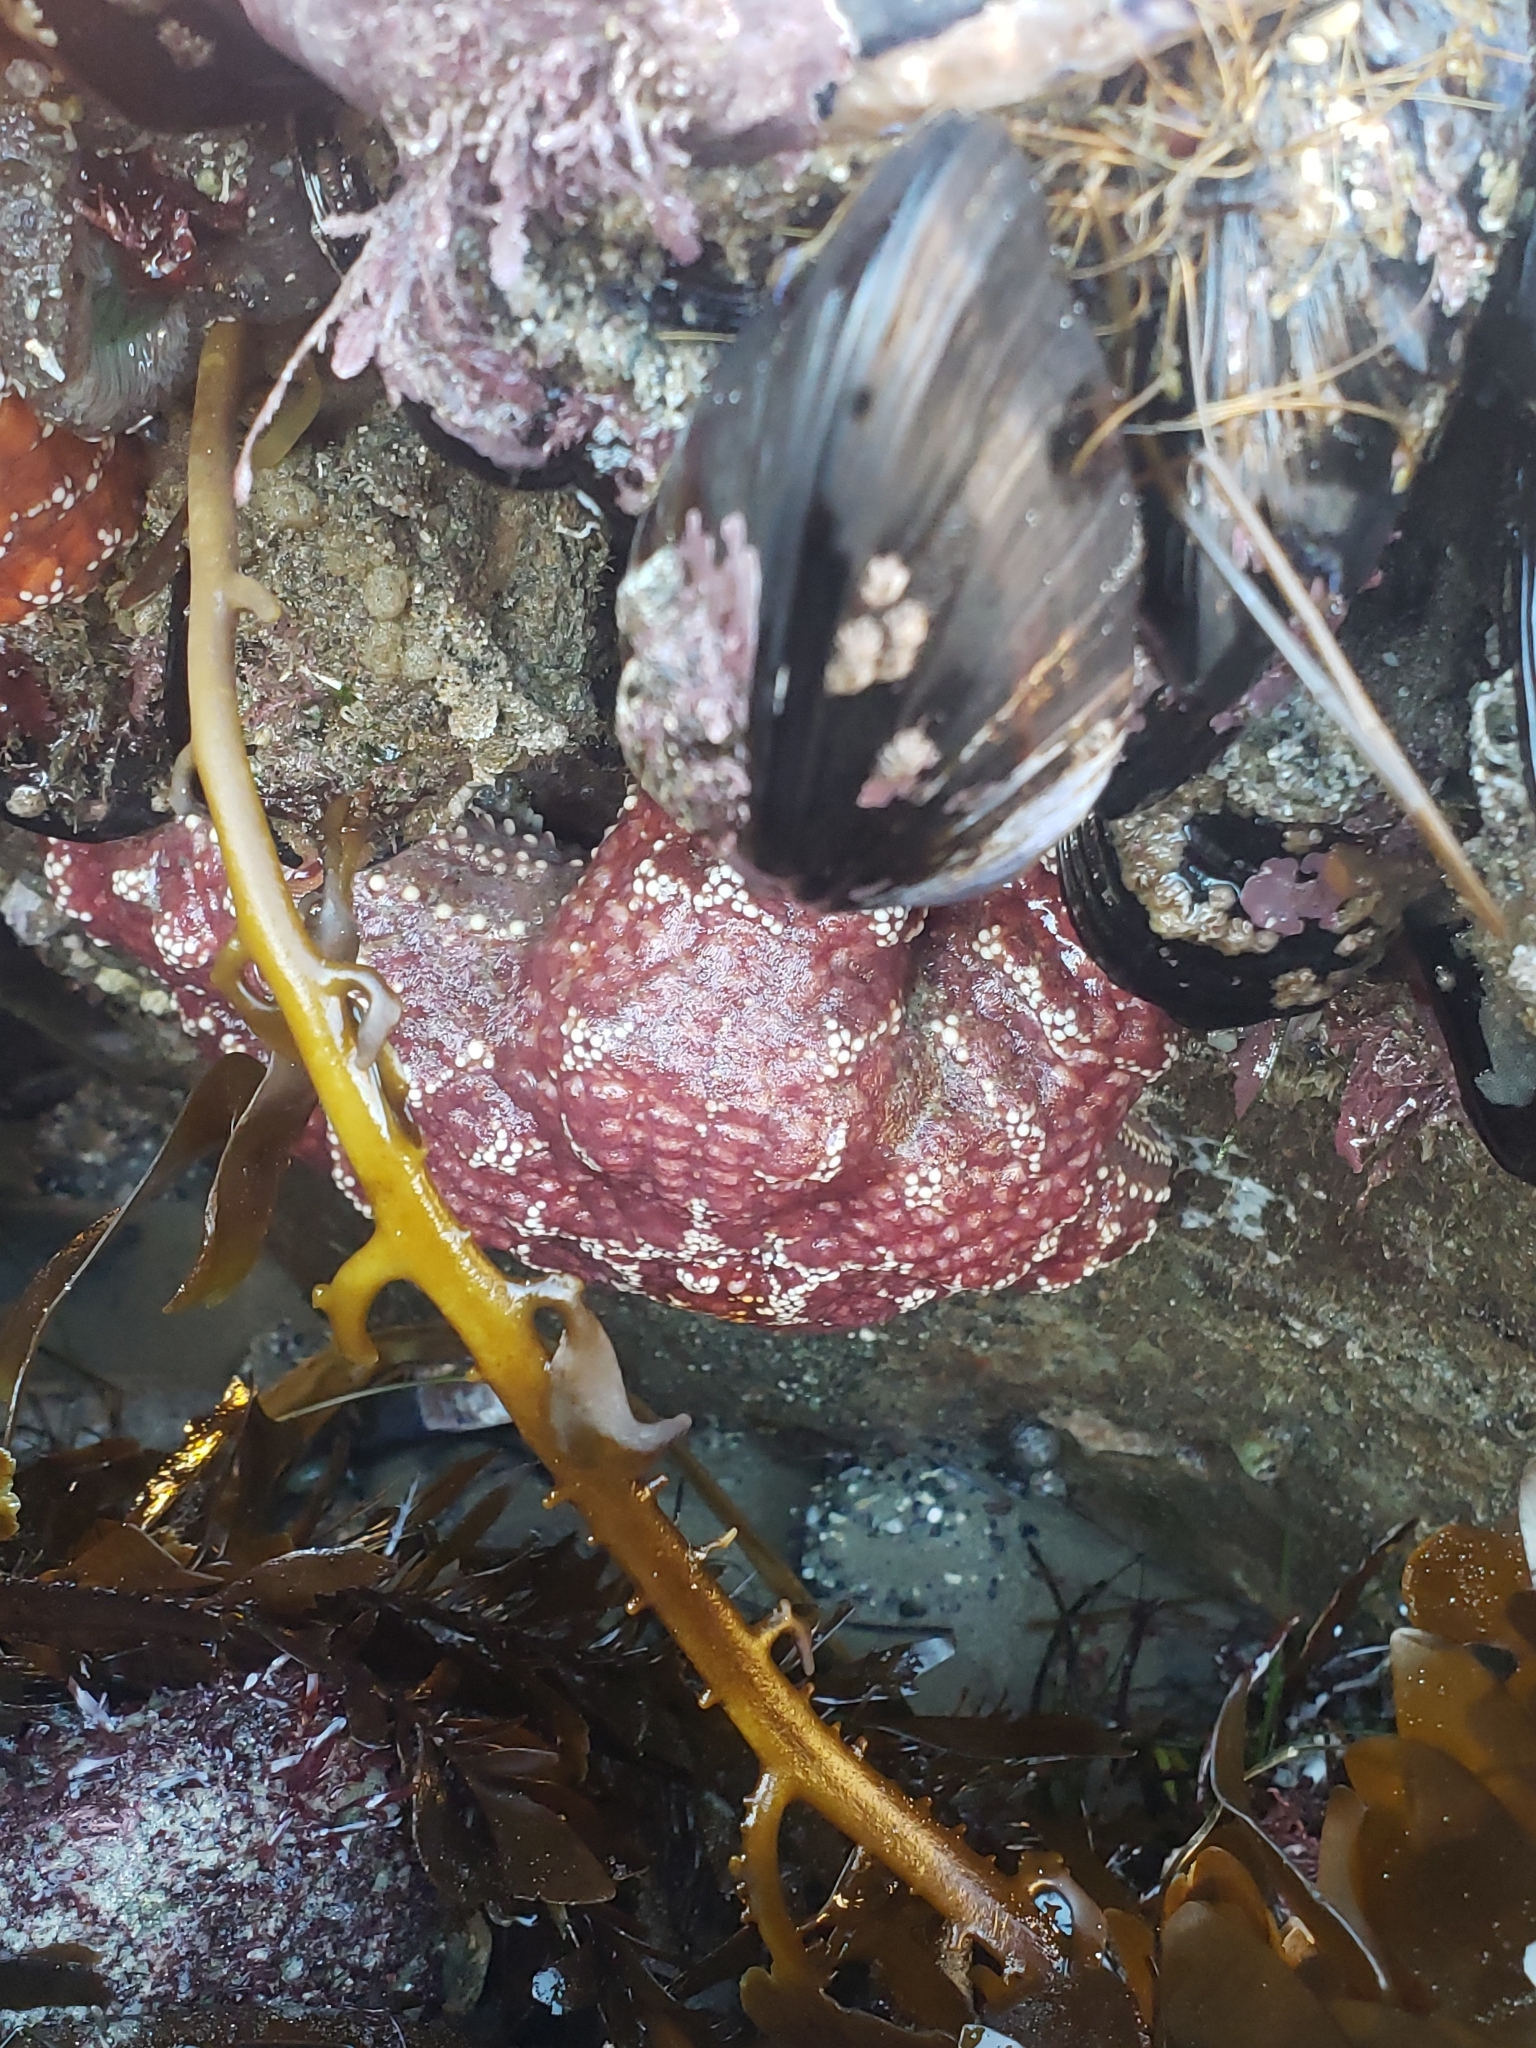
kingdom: Animalia
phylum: Echinodermata
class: Asteroidea
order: Forcipulatida
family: Asteriidae
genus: Pisaster
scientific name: Pisaster ochraceus
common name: Ochre stars
